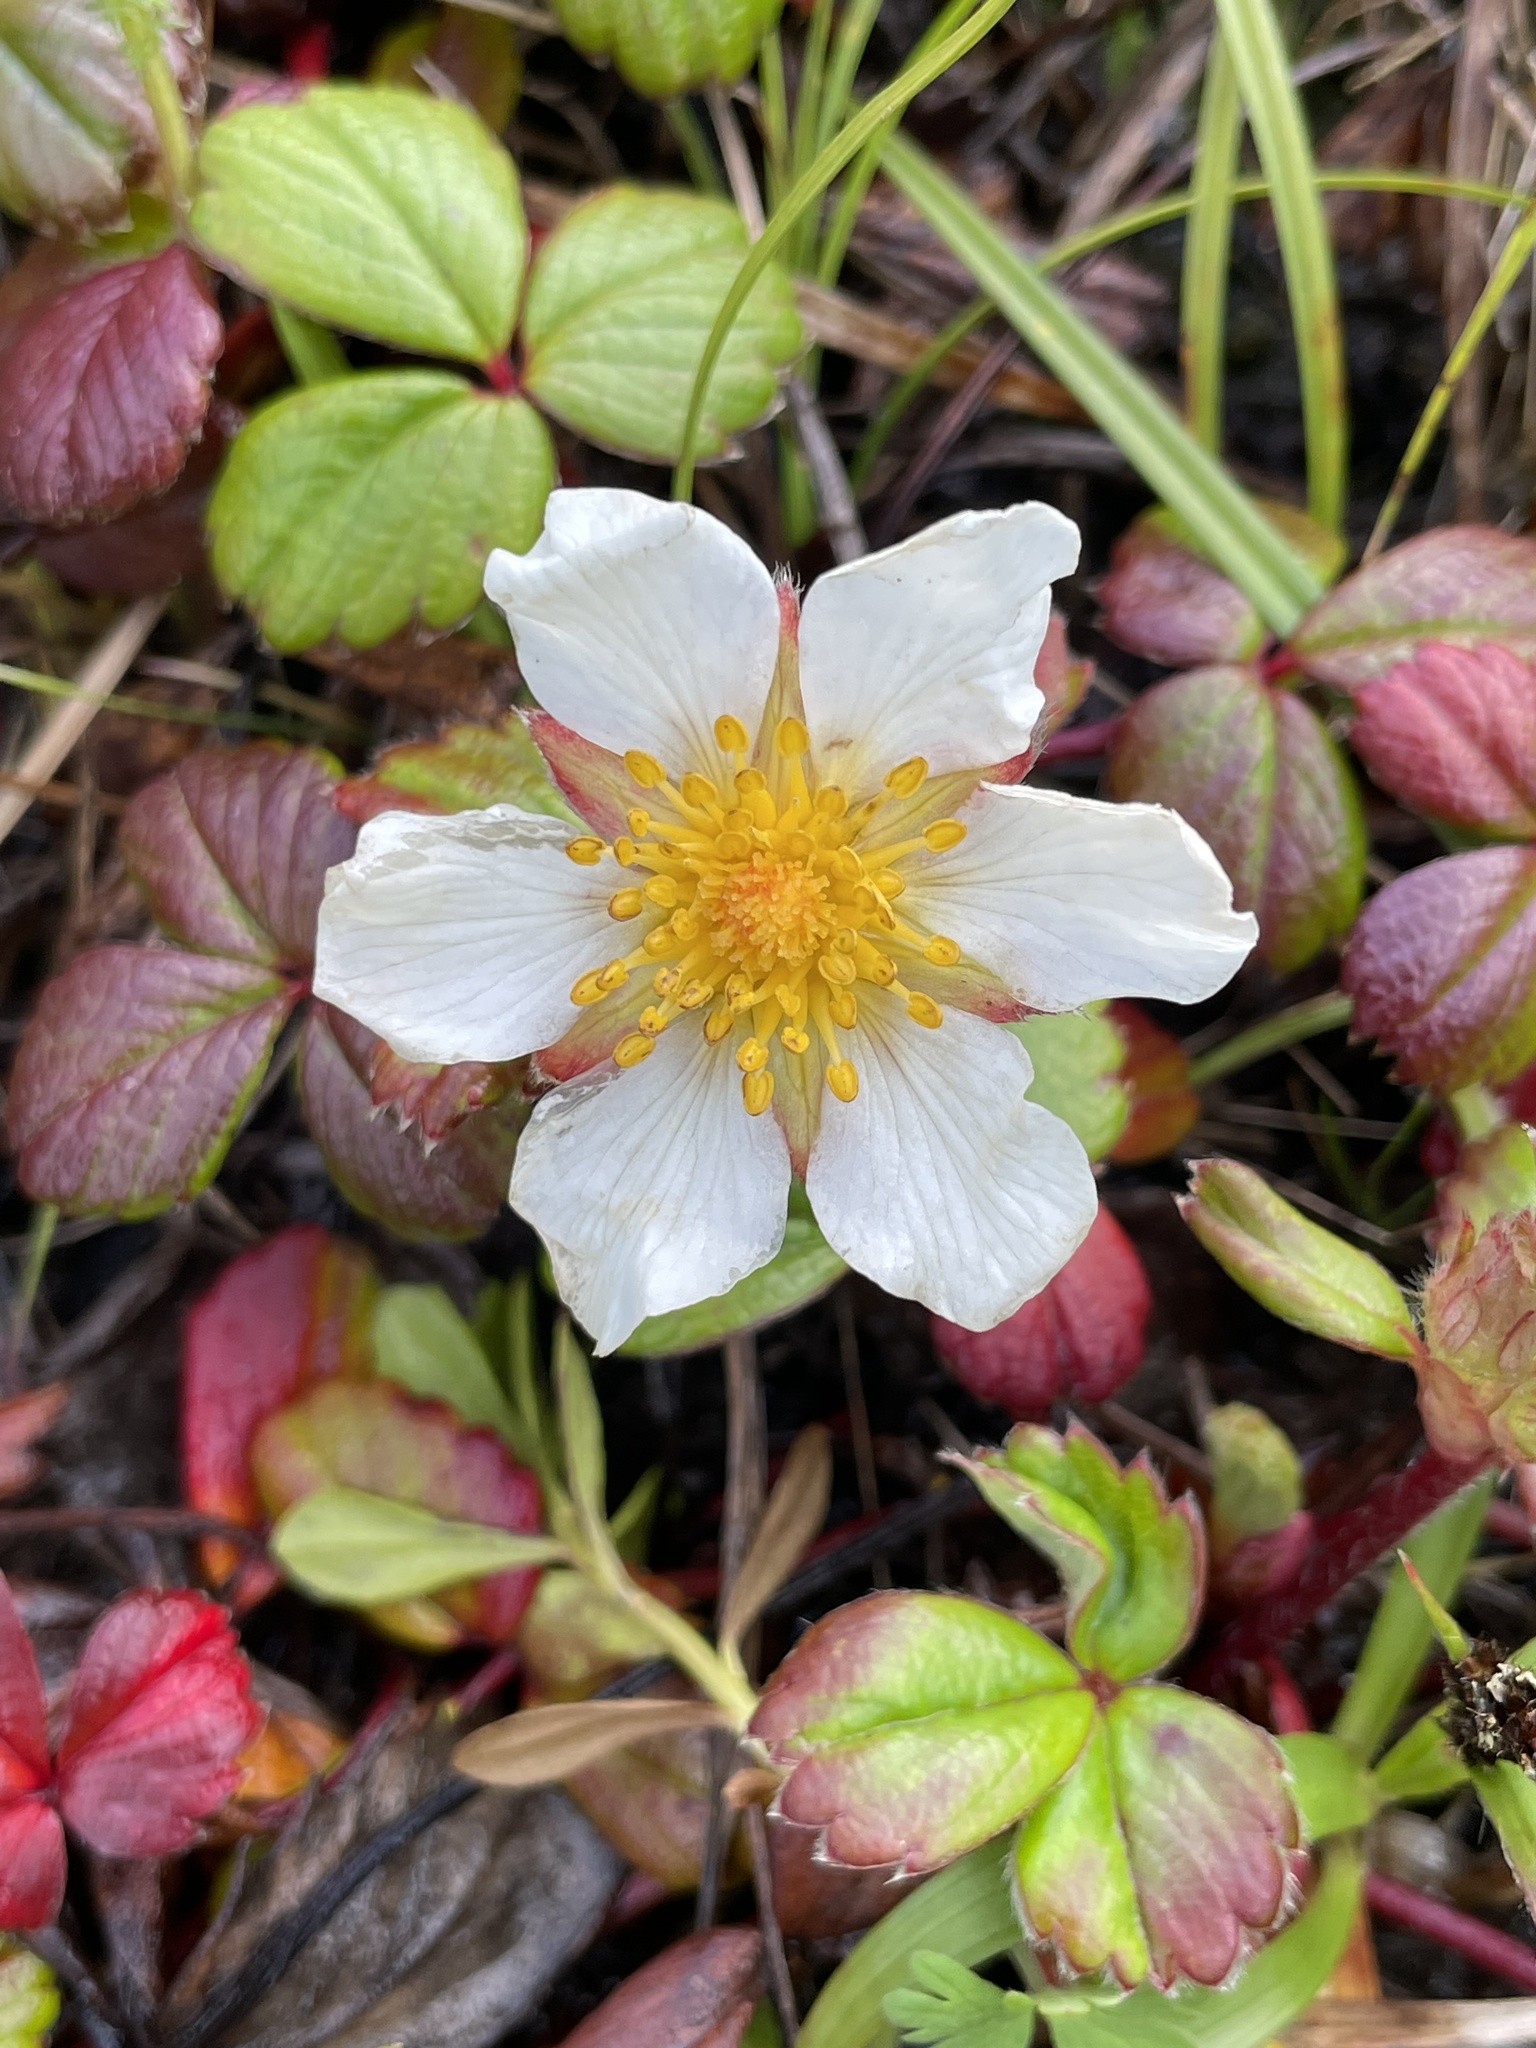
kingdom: Plantae
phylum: Tracheophyta
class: Magnoliopsida
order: Rosales
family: Rosaceae
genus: Fragaria
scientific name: Fragaria chiloensis
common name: Beach strawberry
